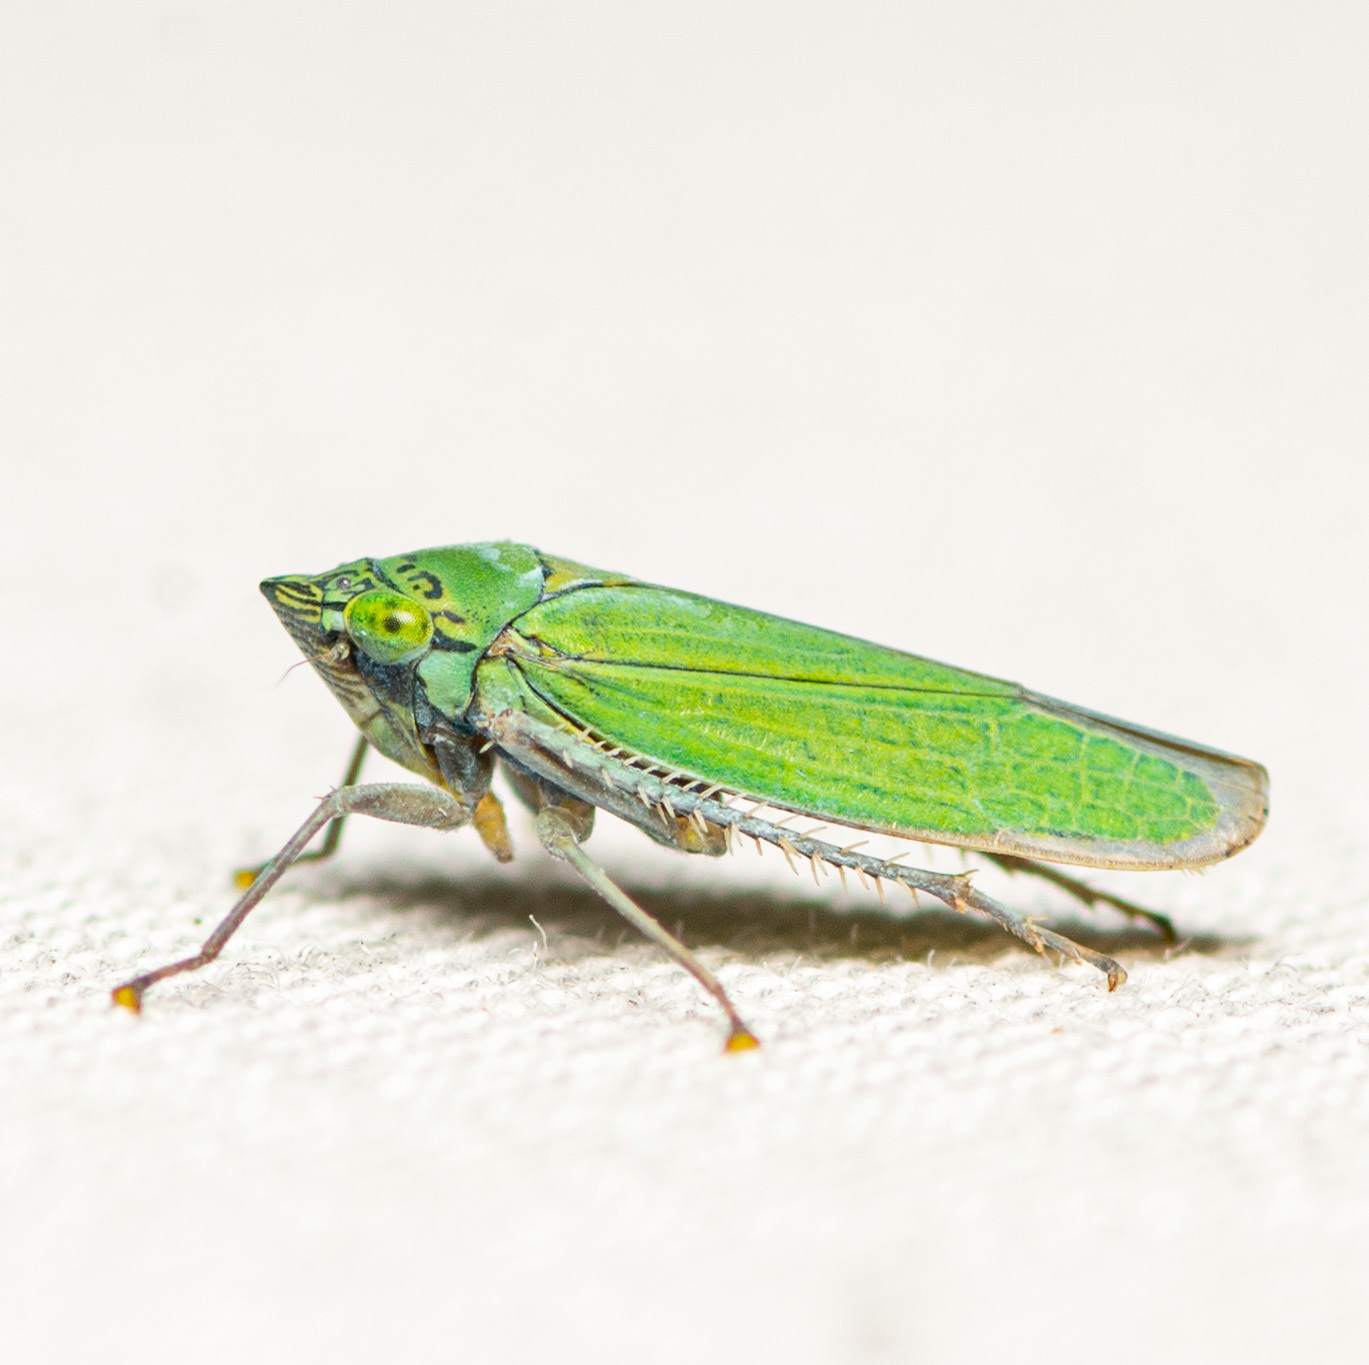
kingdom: Animalia
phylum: Arthropoda
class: Insecta
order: Hemiptera
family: Cicadellidae
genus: Draeculacephala
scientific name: Draeculacephala inscripta
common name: Leafhopper
